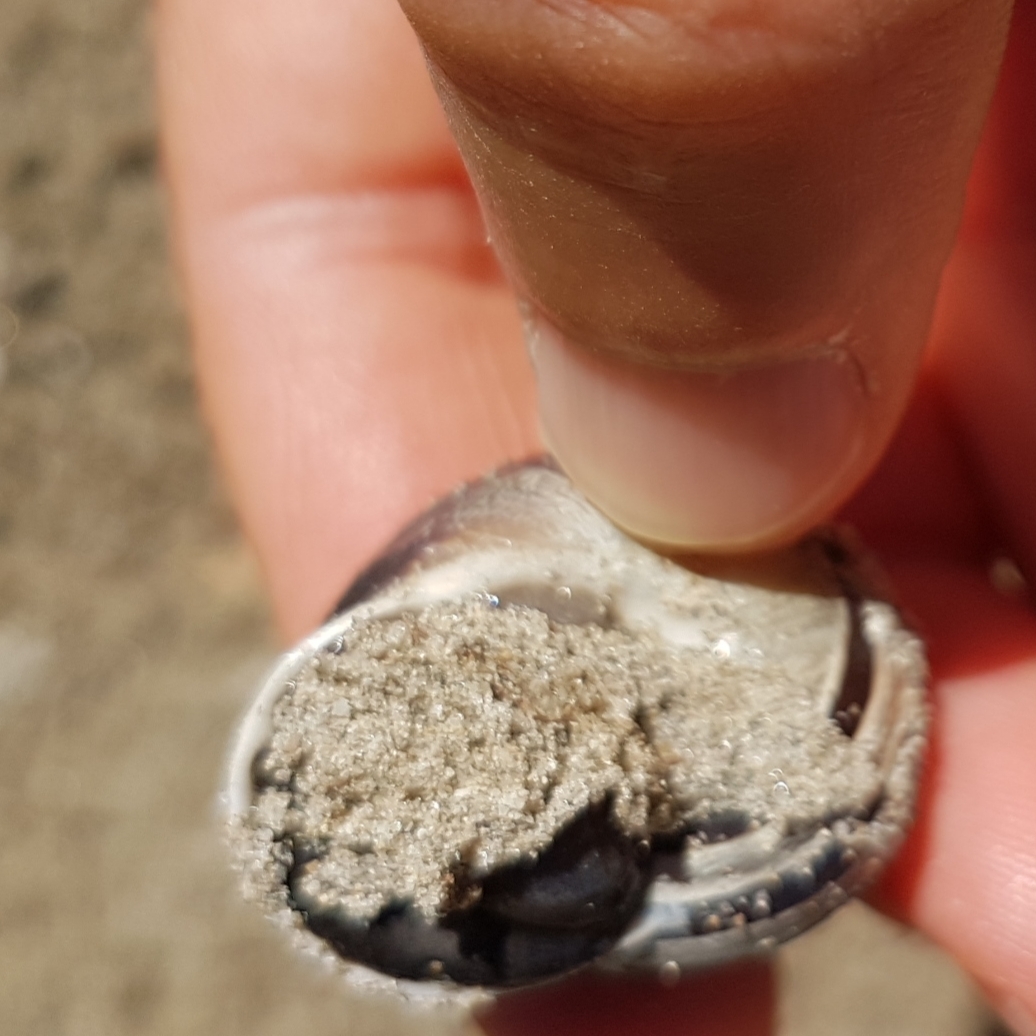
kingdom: Animalia
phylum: Mollusca
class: Gastropoda
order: Stylommatophora
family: Helicidae
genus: Eobania
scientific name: Eobania vermiculata
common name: Chocolateband snail
